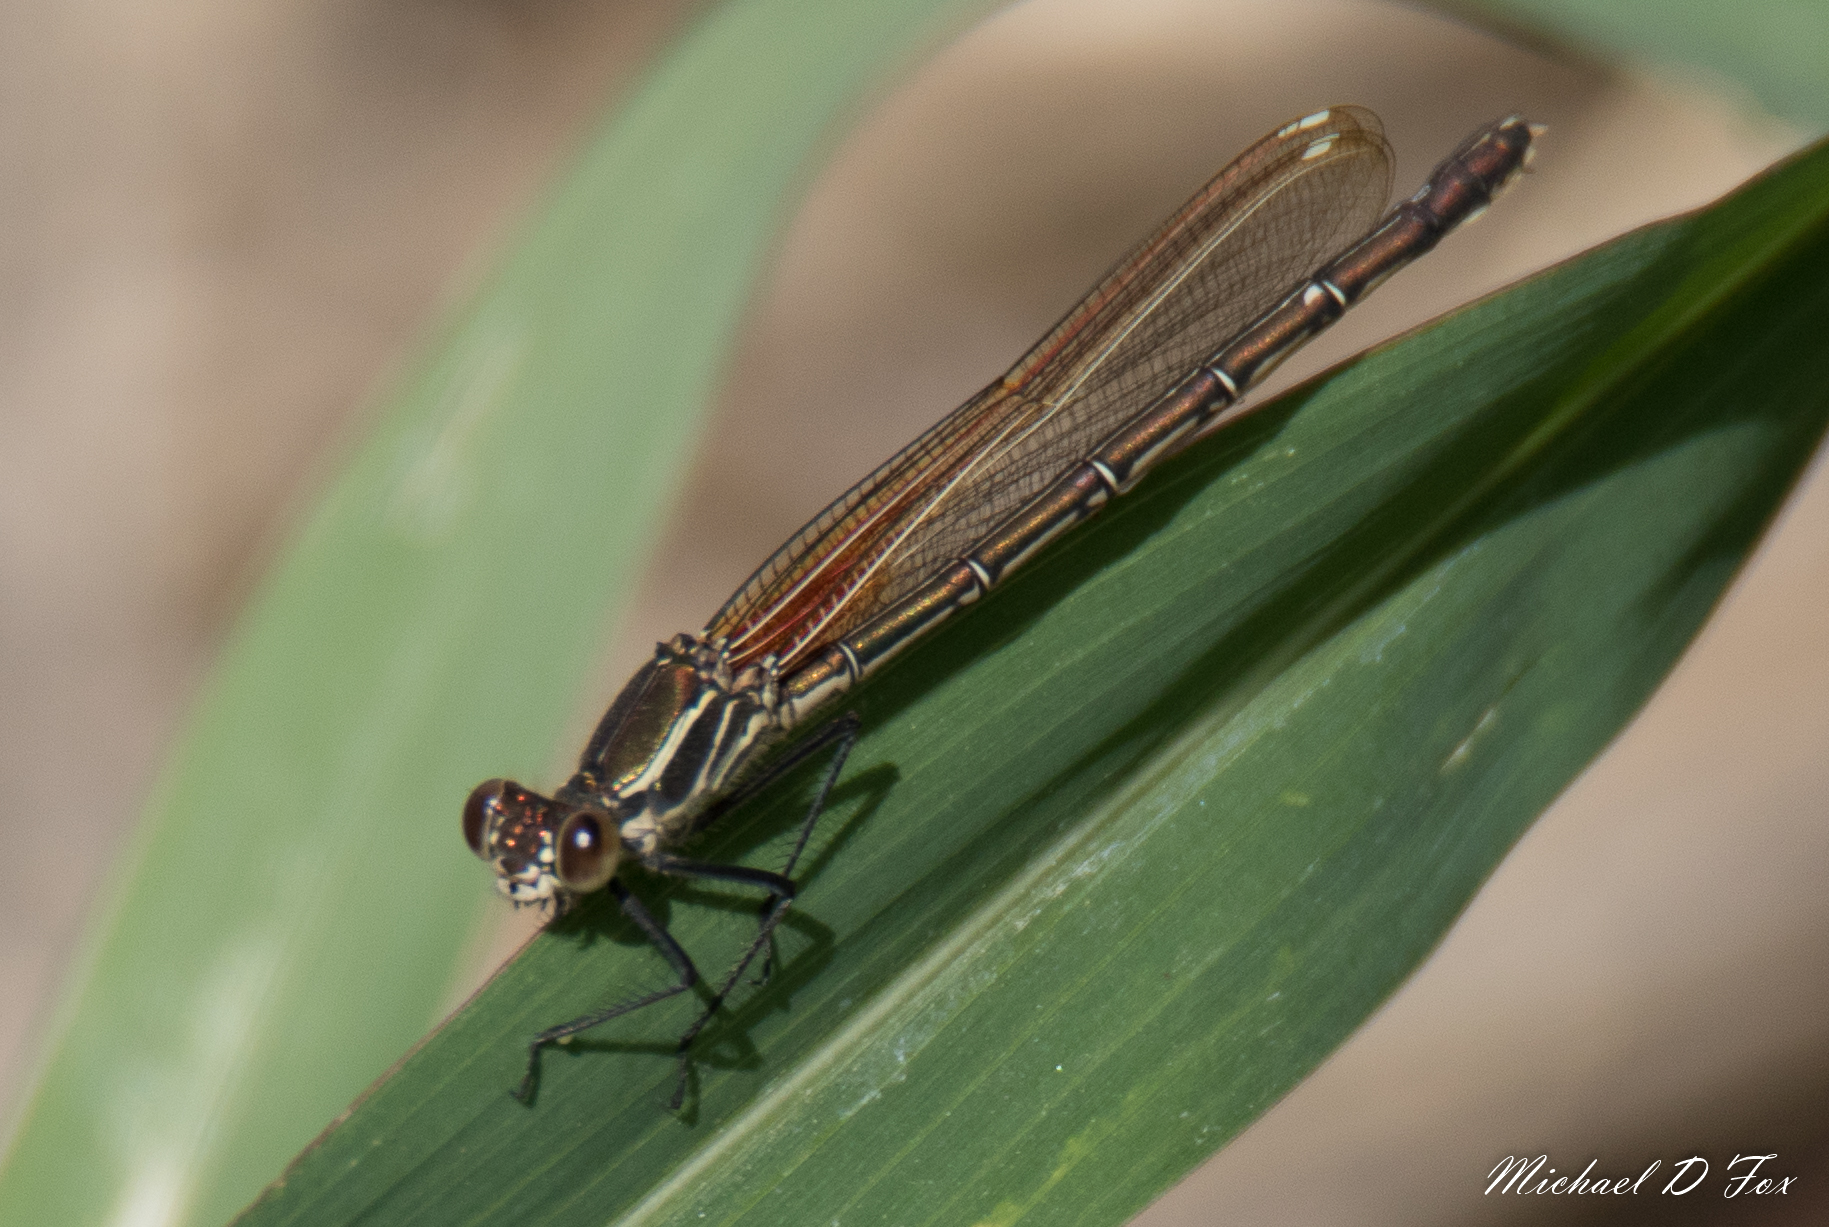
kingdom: Animalia
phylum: Arthropoda
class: Insecta
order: Odonata
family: Calopterygidae
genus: Hetaerina
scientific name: Hetaerina americana
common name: American rubyspot
